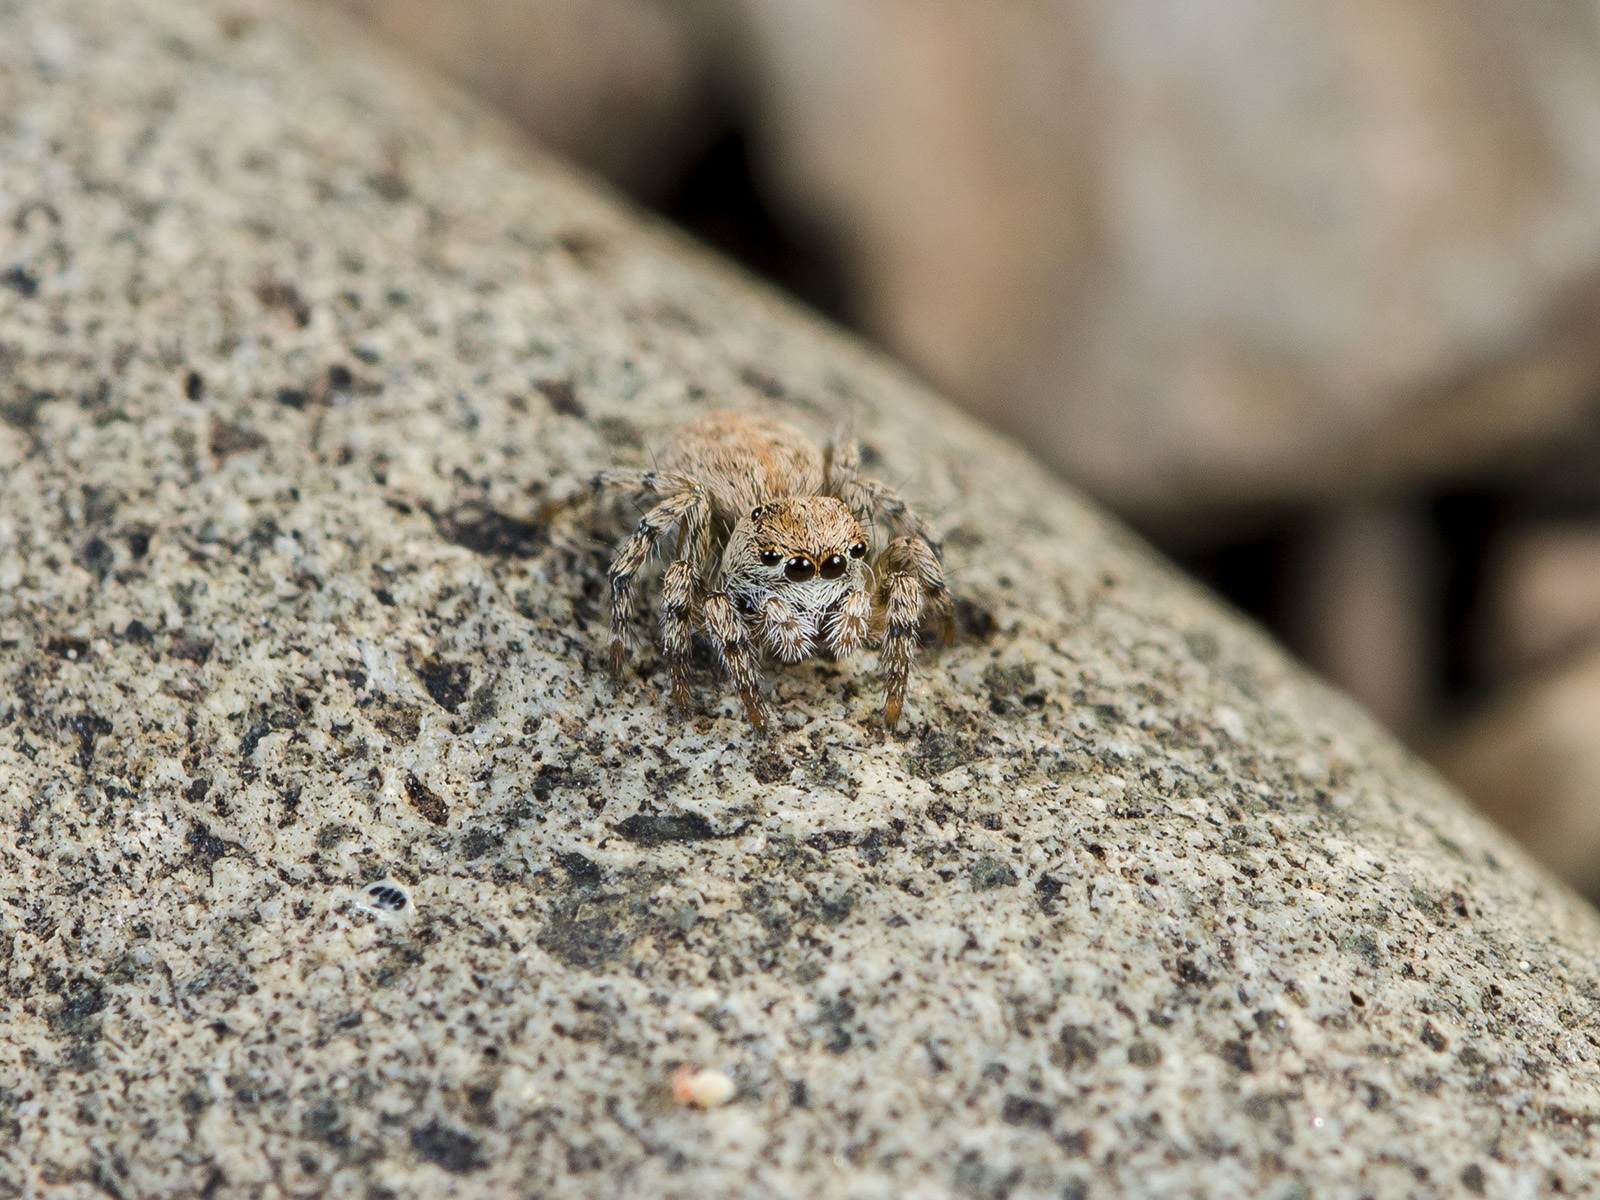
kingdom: Animalia
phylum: Arthropoda
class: Arachnida
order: Araneae
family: Salticidae
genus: Aelurillus
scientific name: Aelurillus dubatolovi
